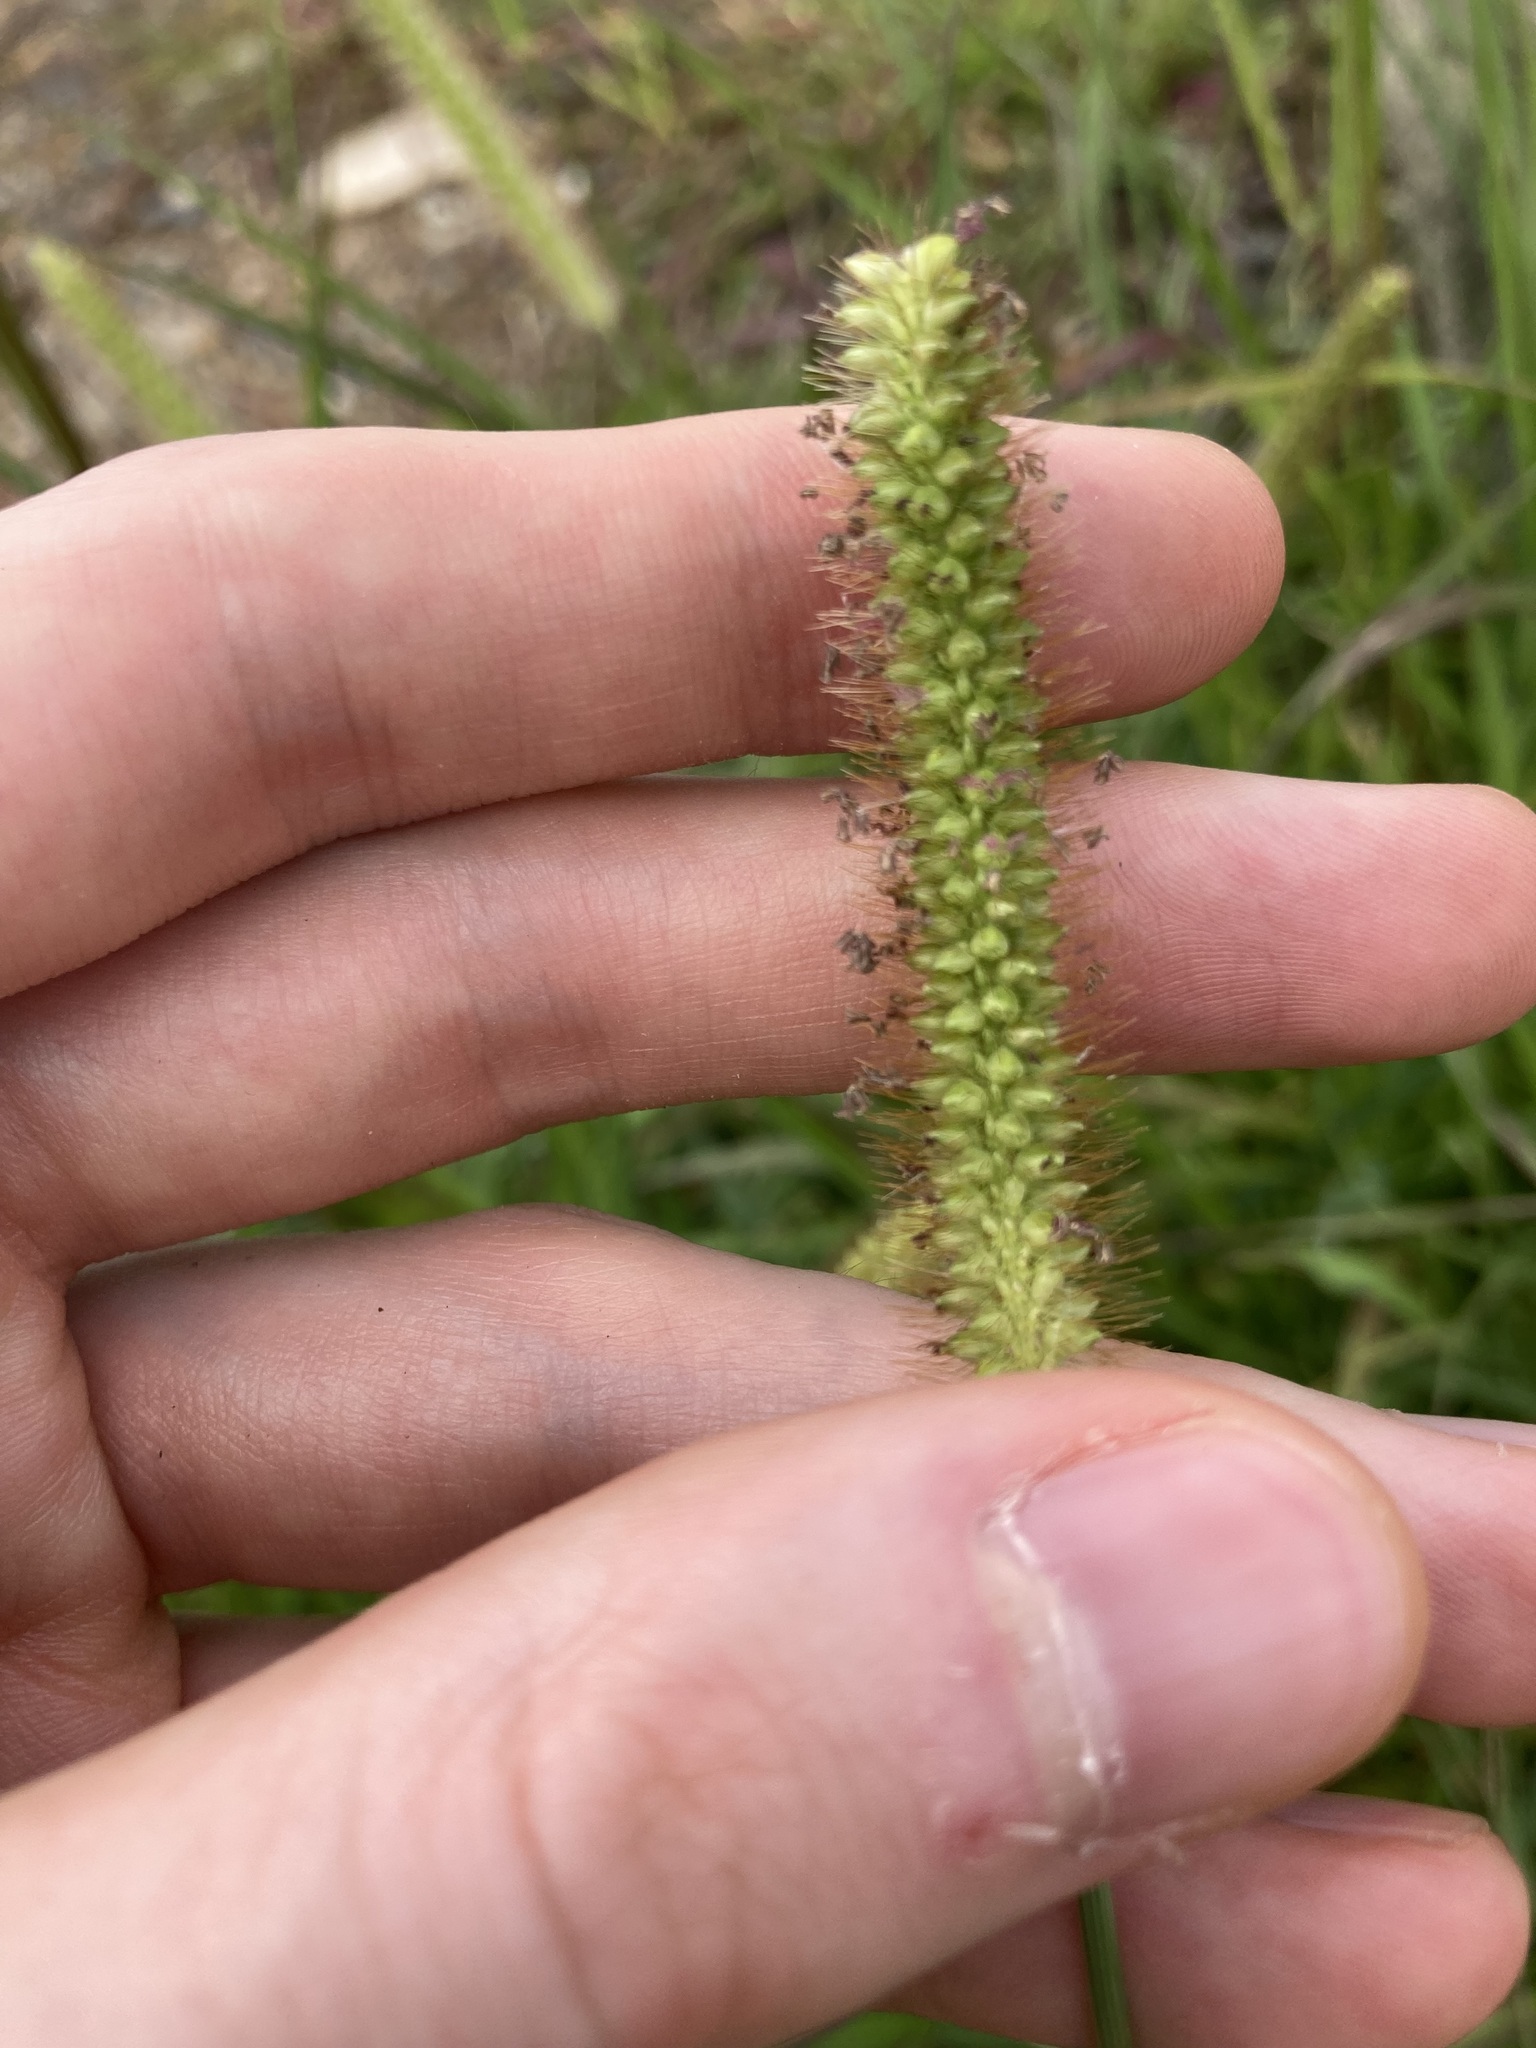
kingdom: Plantae
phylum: Tracheophyta
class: Liliopsida
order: Poales
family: Poaceae
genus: Setaria
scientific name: Setaria pumila
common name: Yellow bristle-grass
